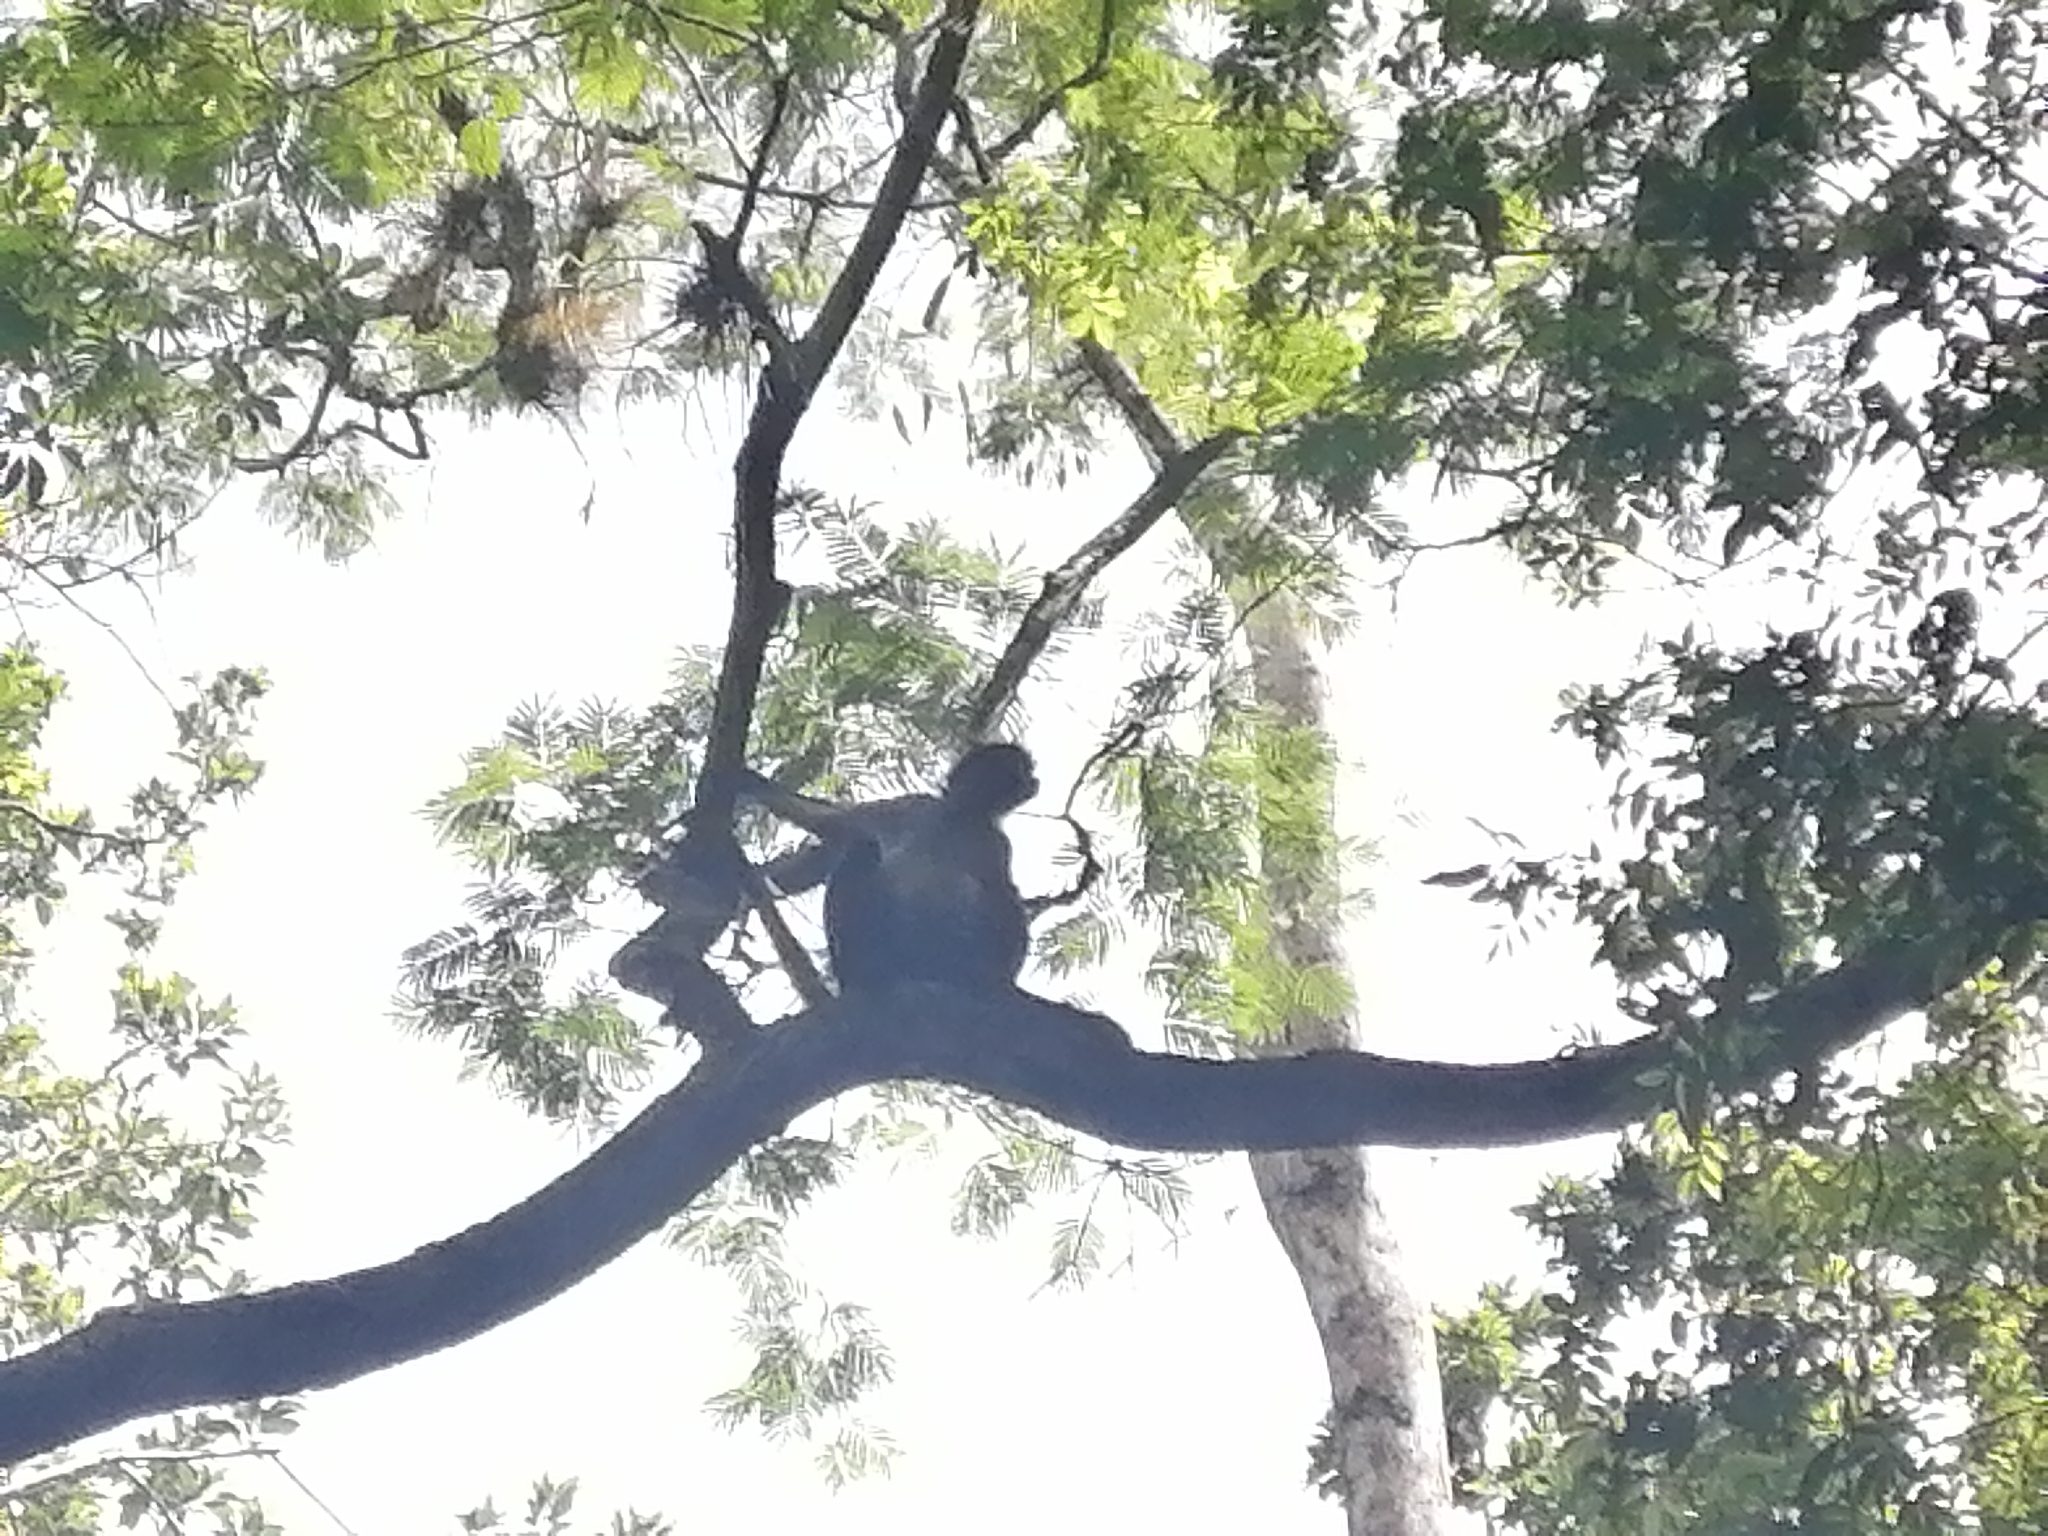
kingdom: Animalia
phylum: Chordata
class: Mammalia
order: Primates
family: Atelidae
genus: Ateles
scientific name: Ateles geoffroyi
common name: Black-handed spider monkey
